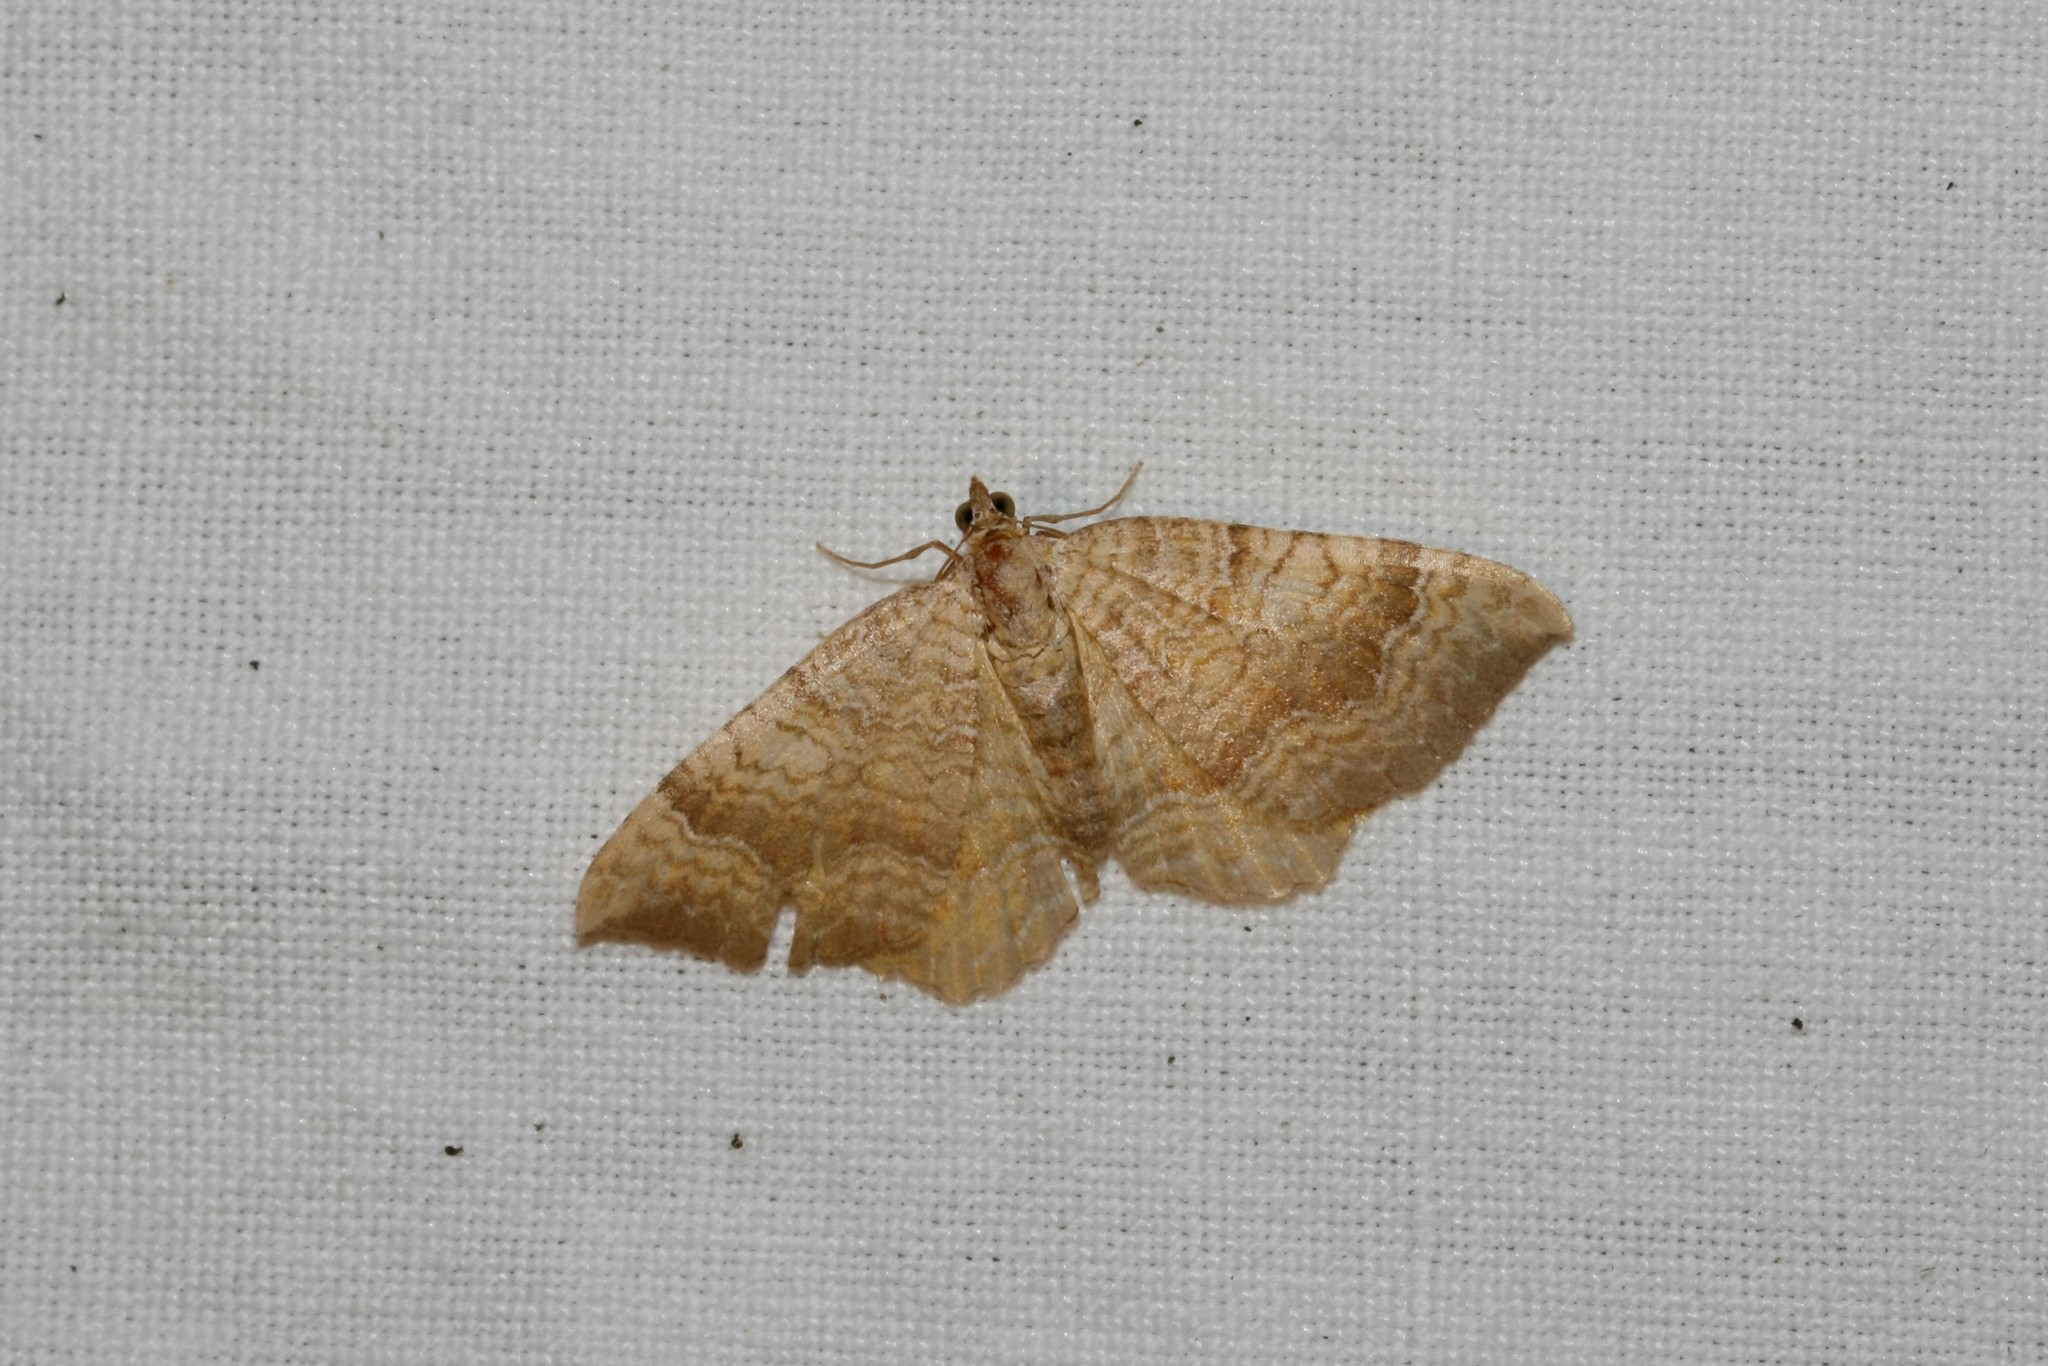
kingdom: Animalia
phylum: Arthropoda
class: Insecta
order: Lepidoptera
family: Geometridae
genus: Camptogramma
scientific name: Camptogramma bilineata
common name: Yellow shell
